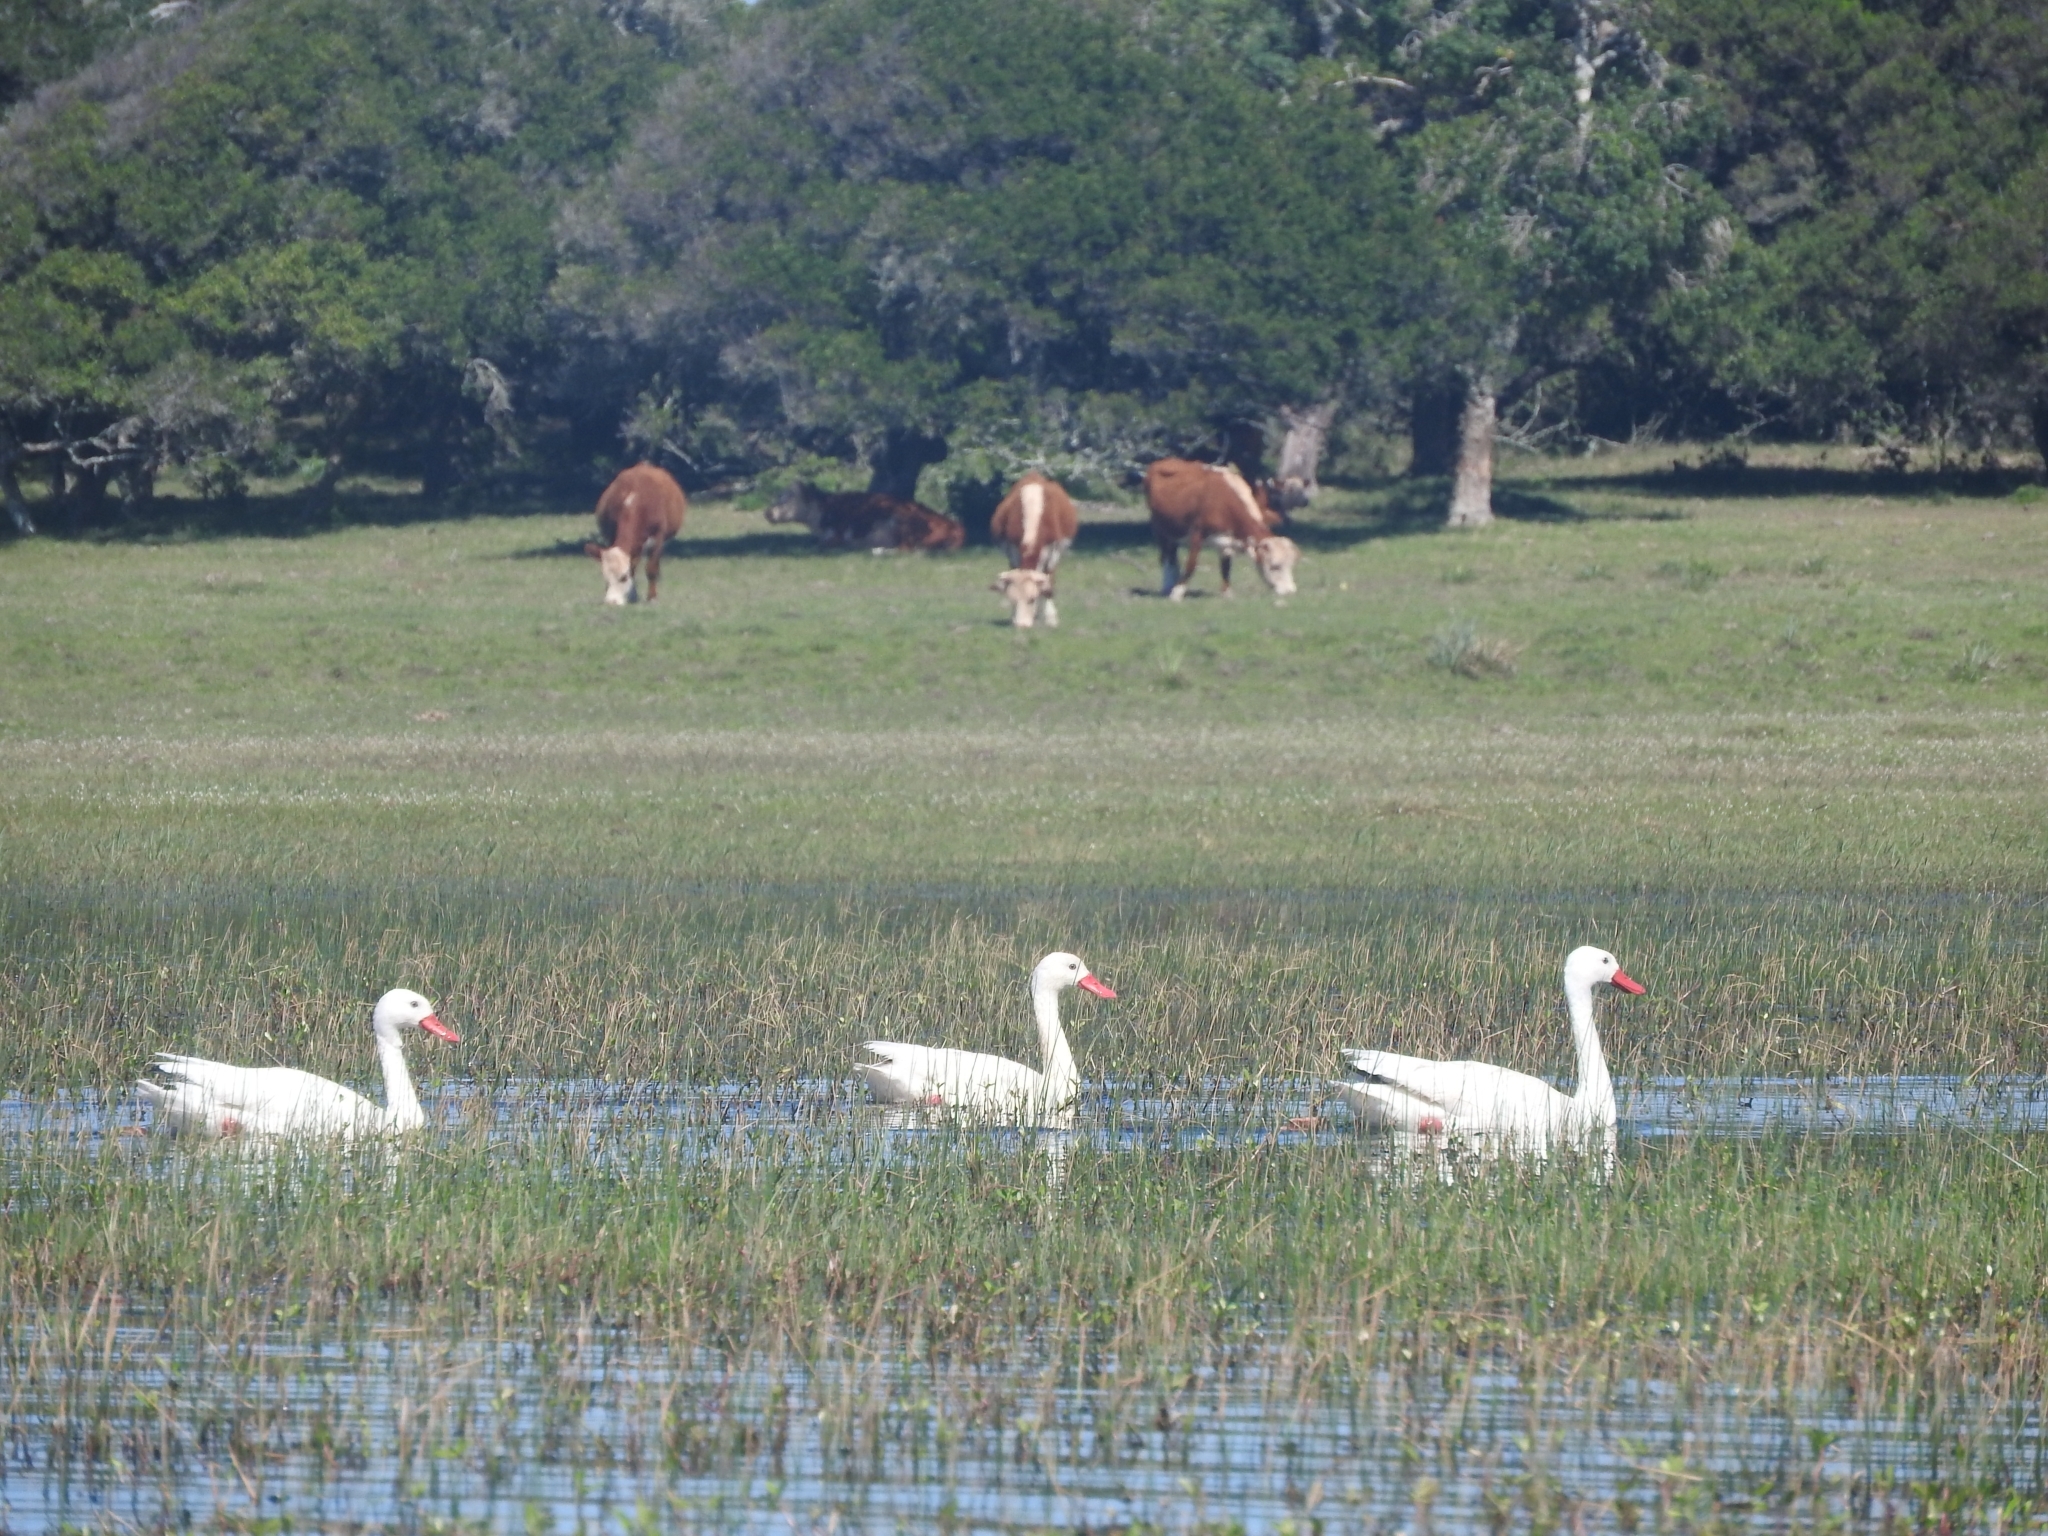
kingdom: Animalia
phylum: Chordata
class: Aves
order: Anseriformes
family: Anatidae
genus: Coscoroba
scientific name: Coscoroba coscoroba
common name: Coscoroba swan
